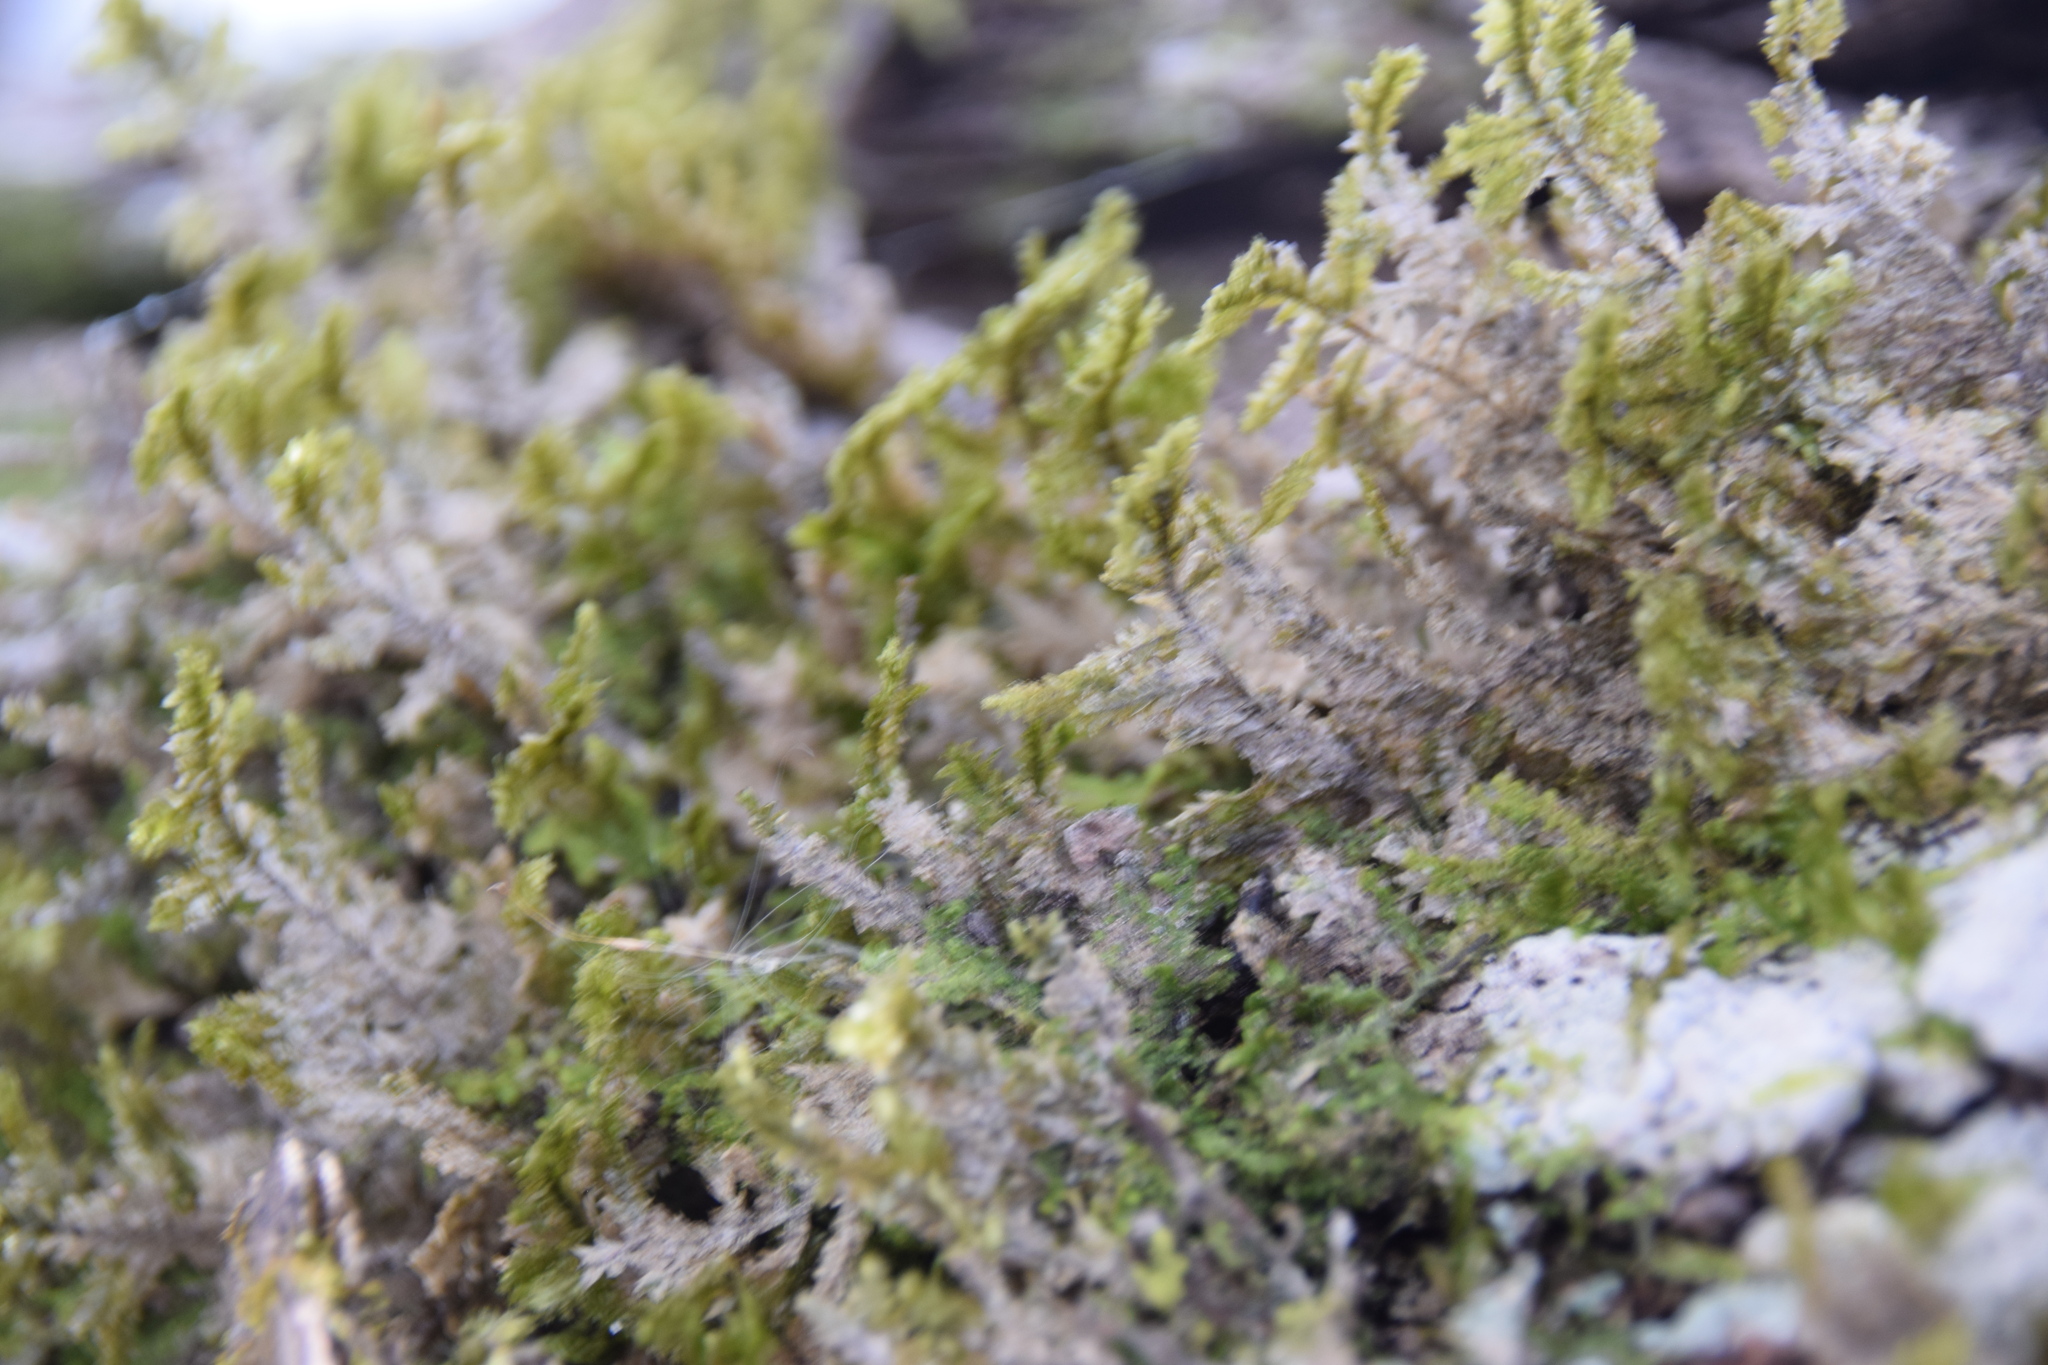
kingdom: Plantae
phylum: Bryophyta
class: Bryopsida
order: Hypnales
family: Neckeraceae
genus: Neckera
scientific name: Neckera pennata
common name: Feathery neckera
